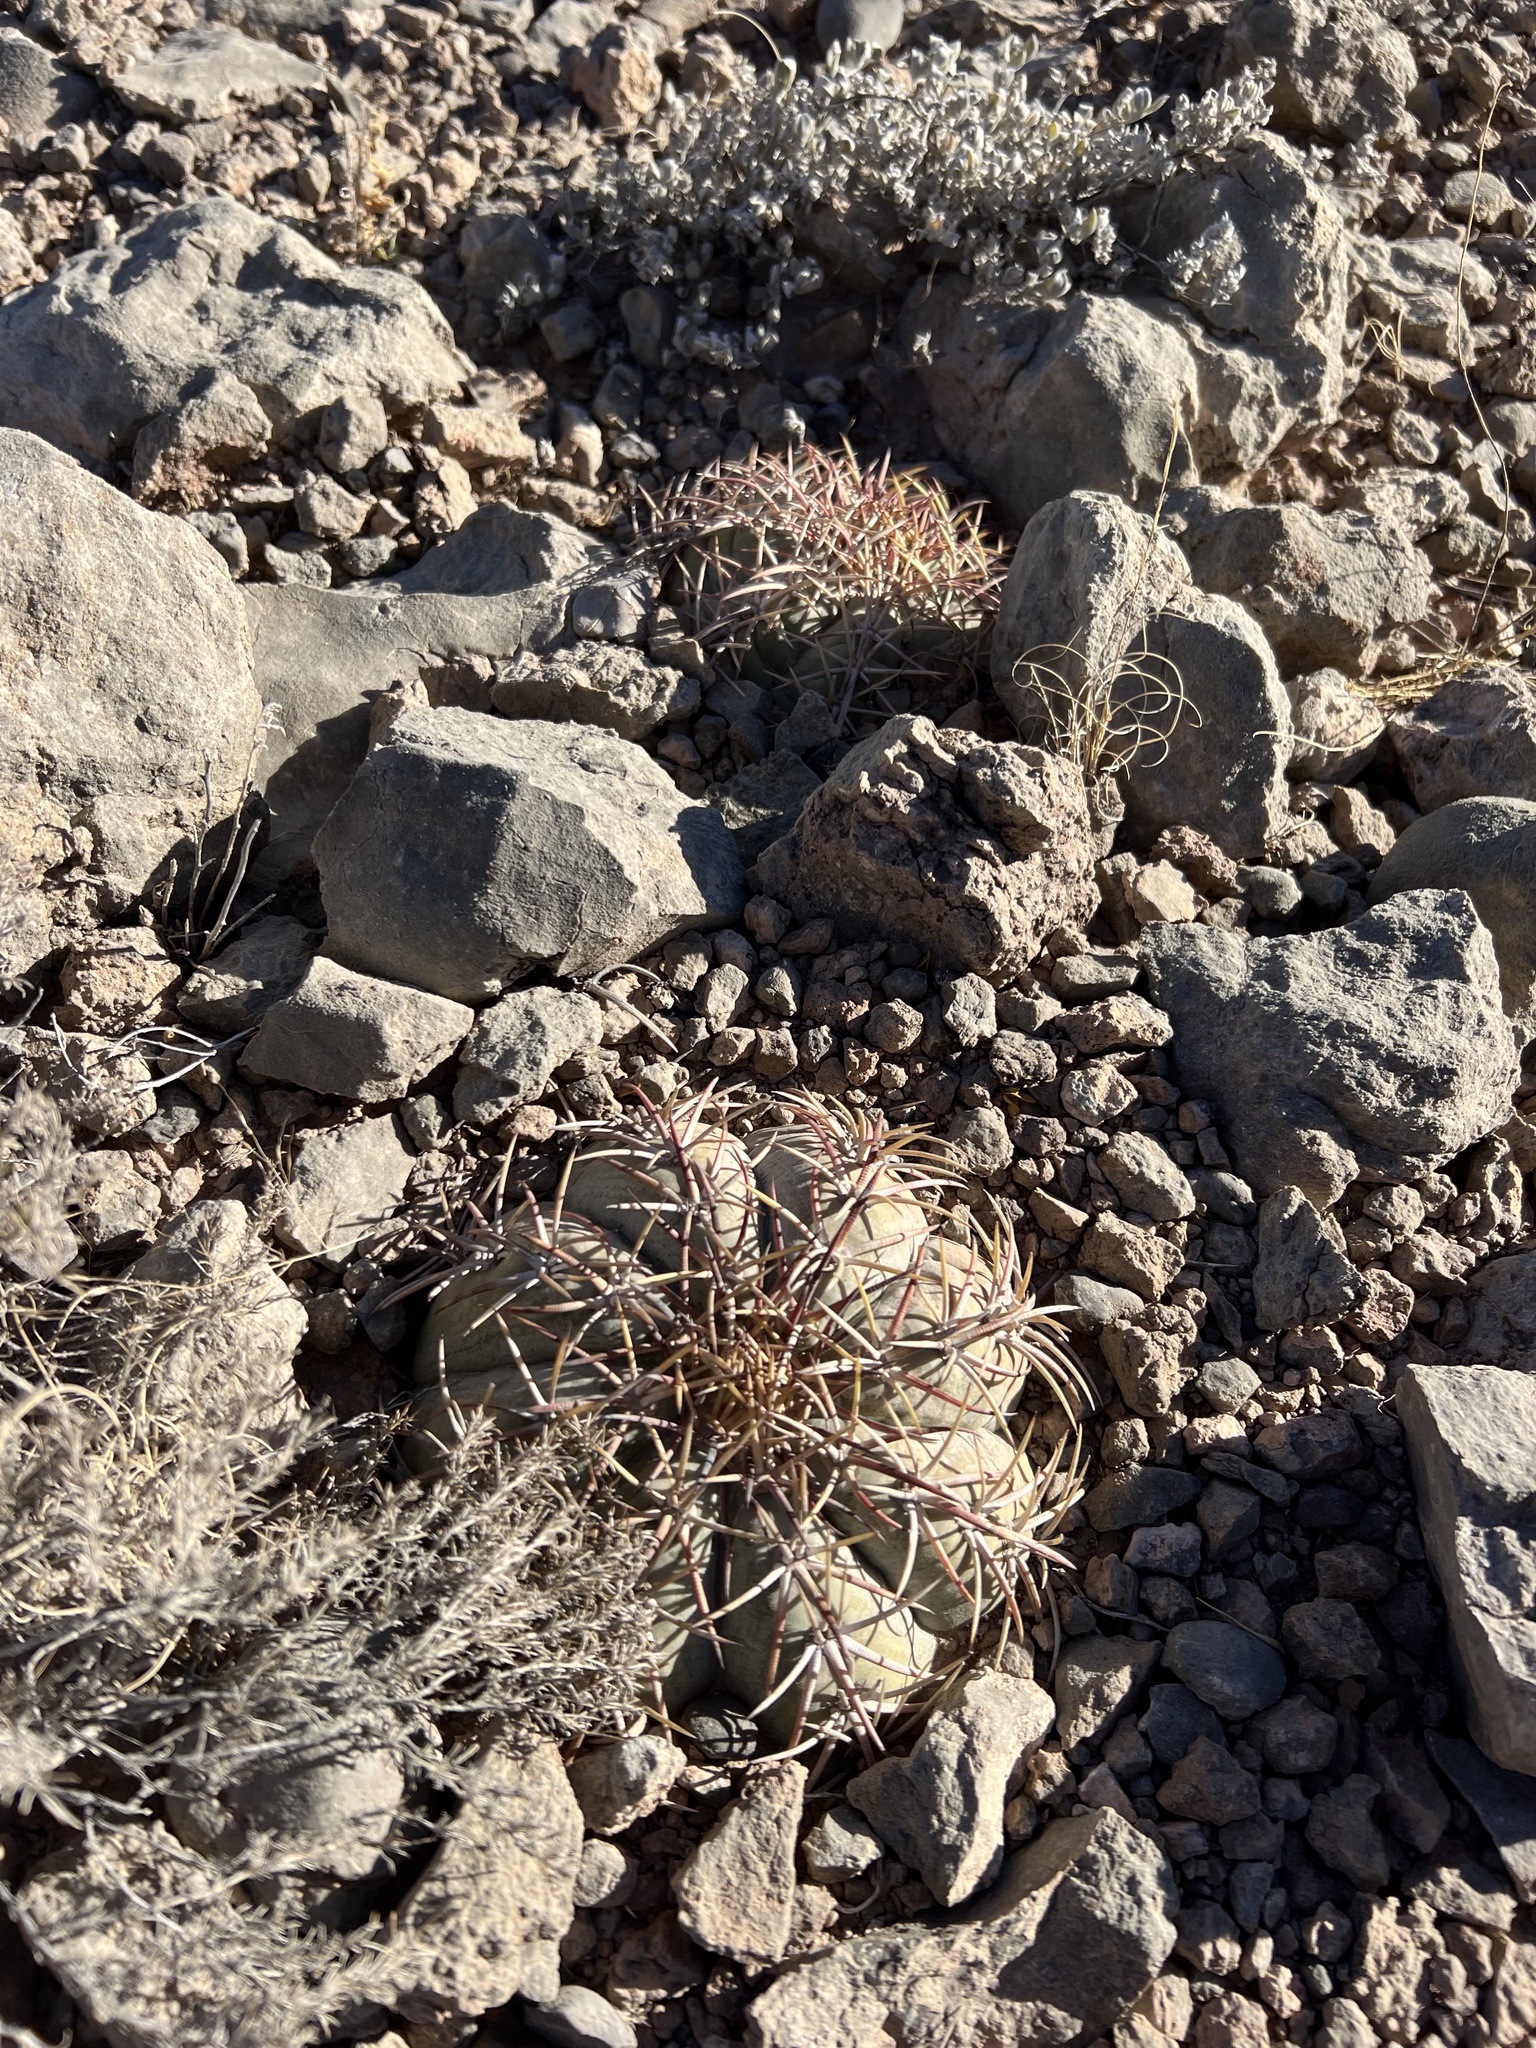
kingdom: Plantae
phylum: Tracheophyta
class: Magnoliopsida
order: Caryophyllales
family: Cactaceae
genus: Echinocactus
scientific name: Echinocactus horizonthalonius
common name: Devilshead
